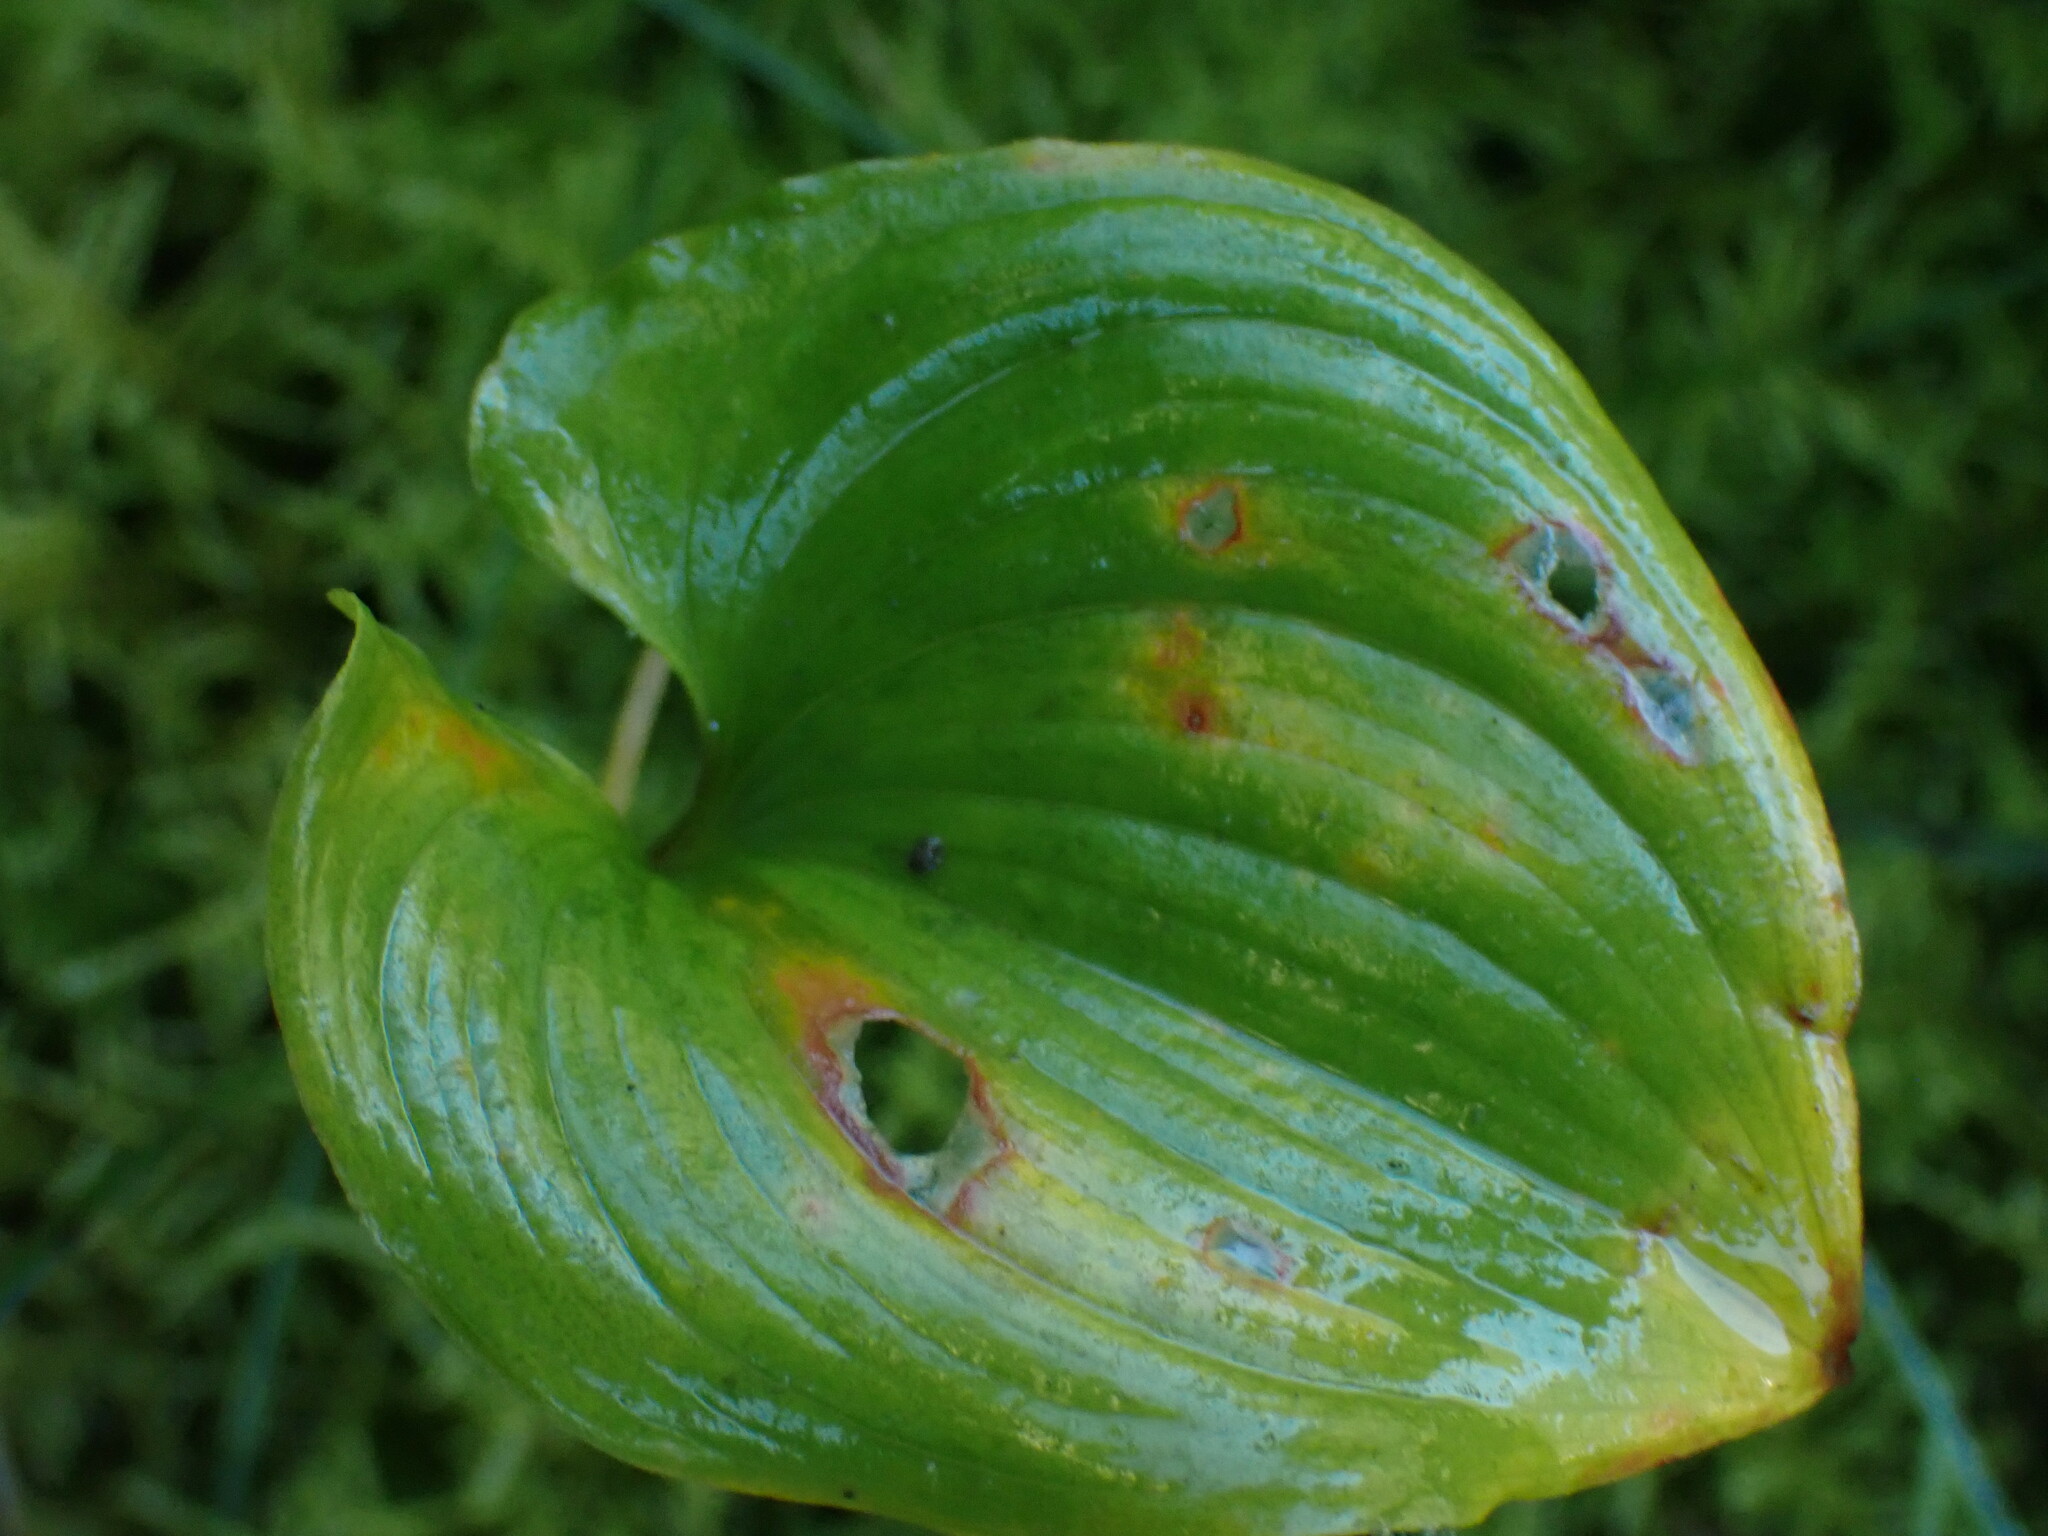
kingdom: Plantae
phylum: Tracheophyta
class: Liliopsida
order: Asparagales
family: Asparagaceae
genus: Maianthemum
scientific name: Maianthemum dilatatum
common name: False lily-of-the-valley
